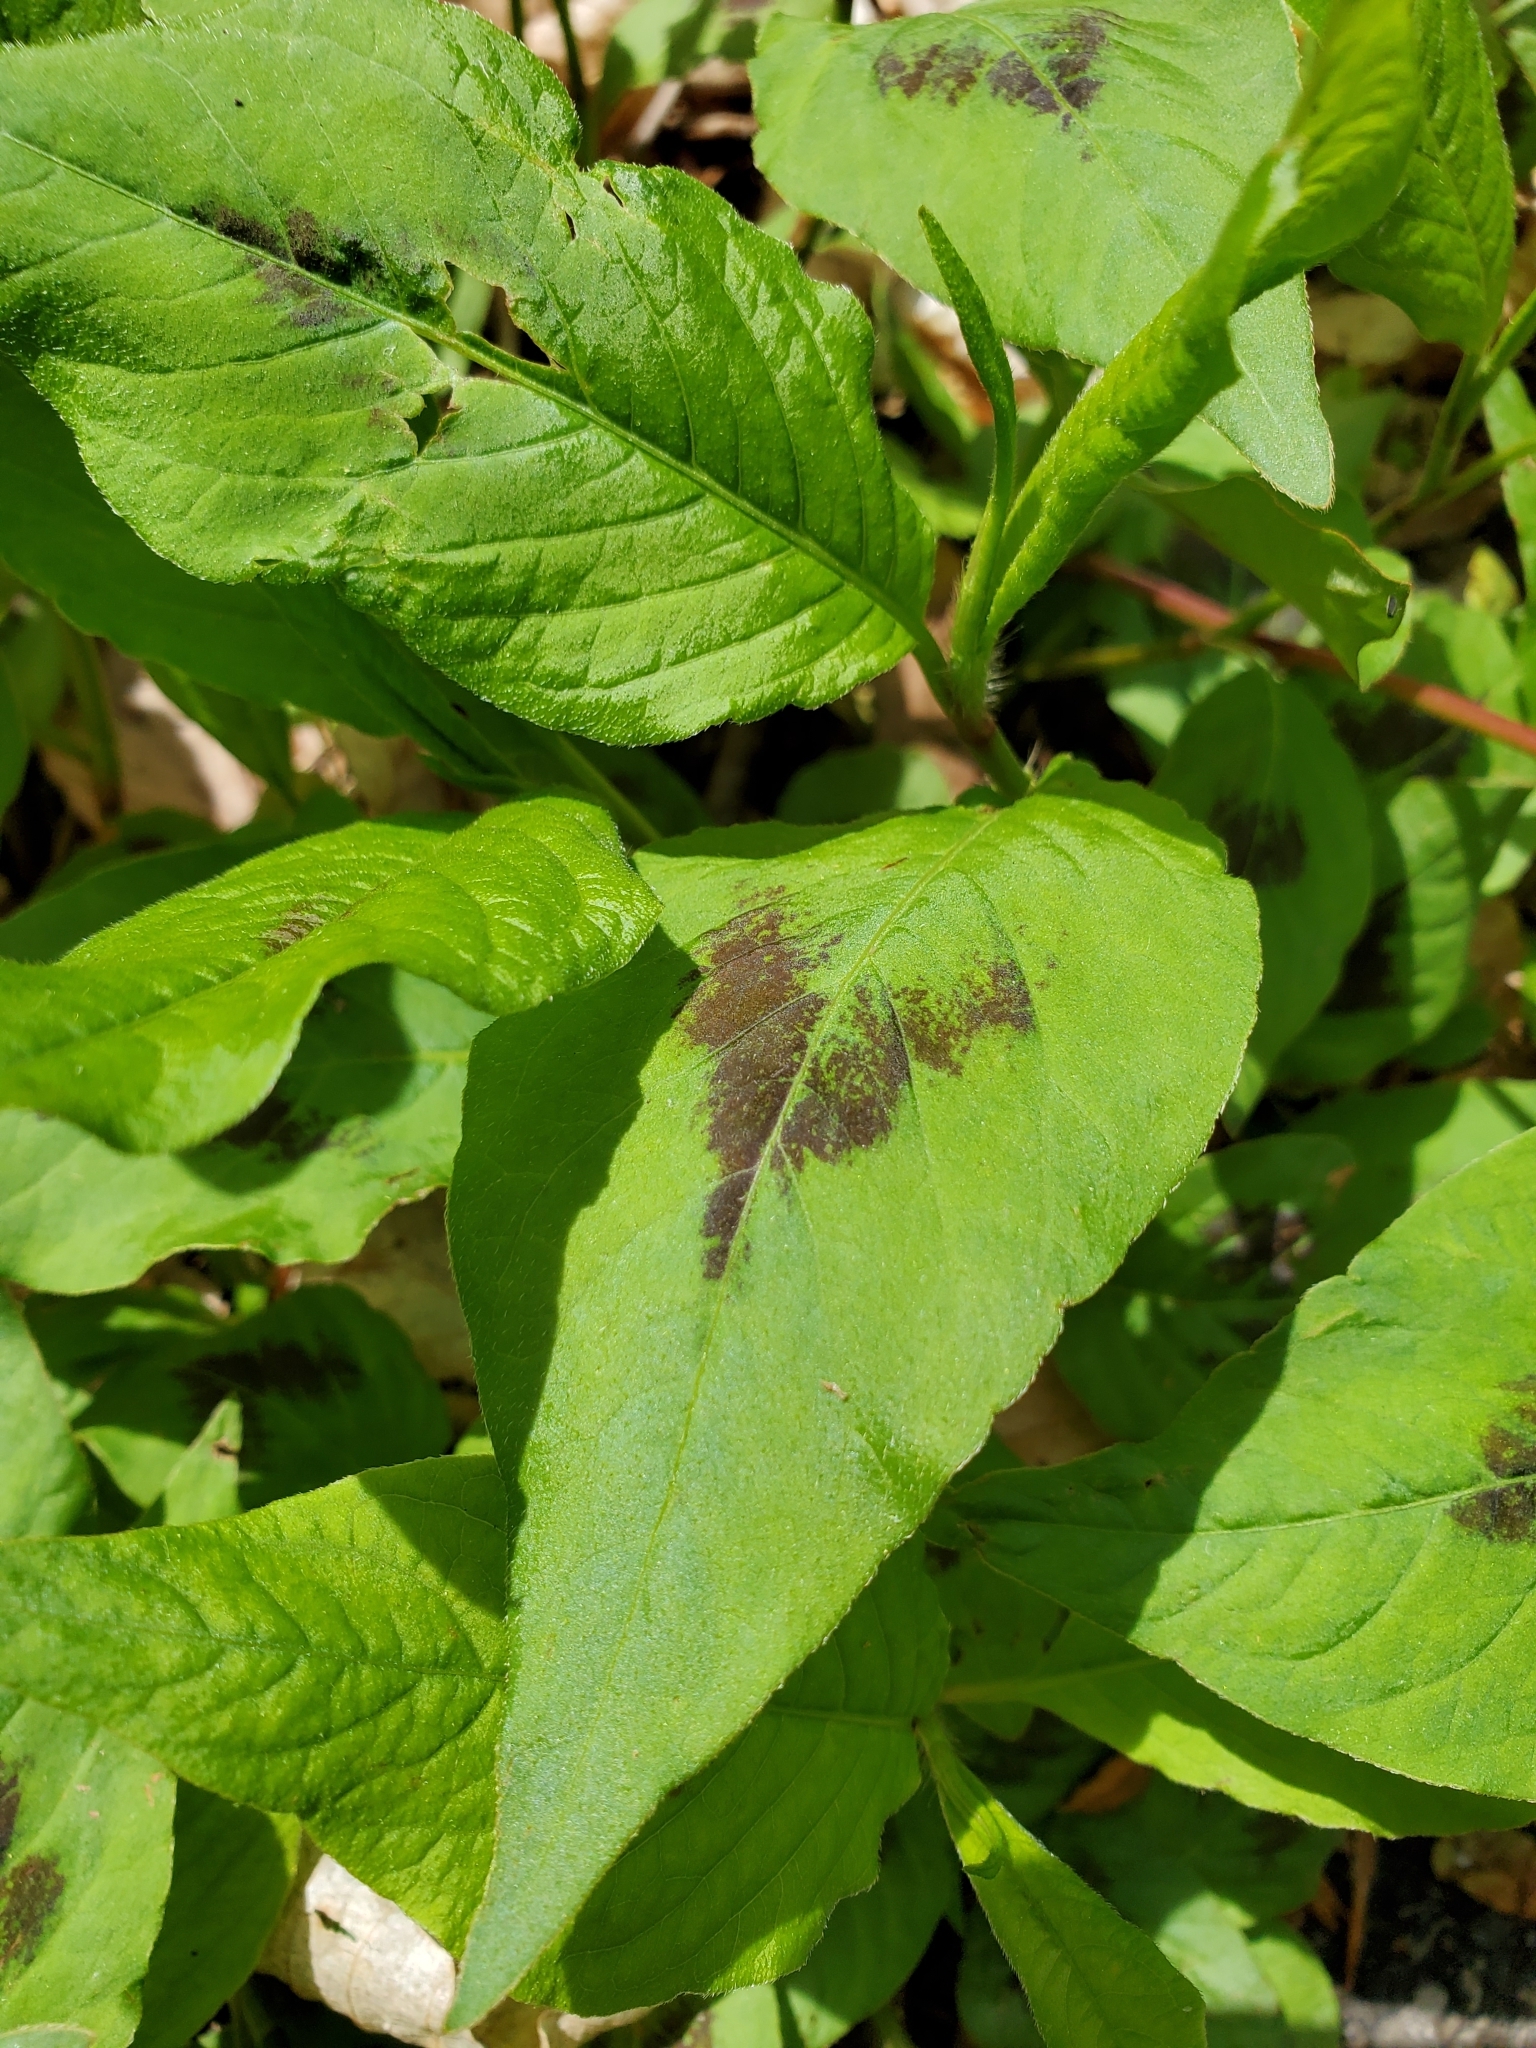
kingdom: Plantae
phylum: Tracheophyta
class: Magnoliopsida
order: Caryophyllales
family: Polygonaceae
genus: Persicaria
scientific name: Persicaria virginiana
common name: Jumpseed
